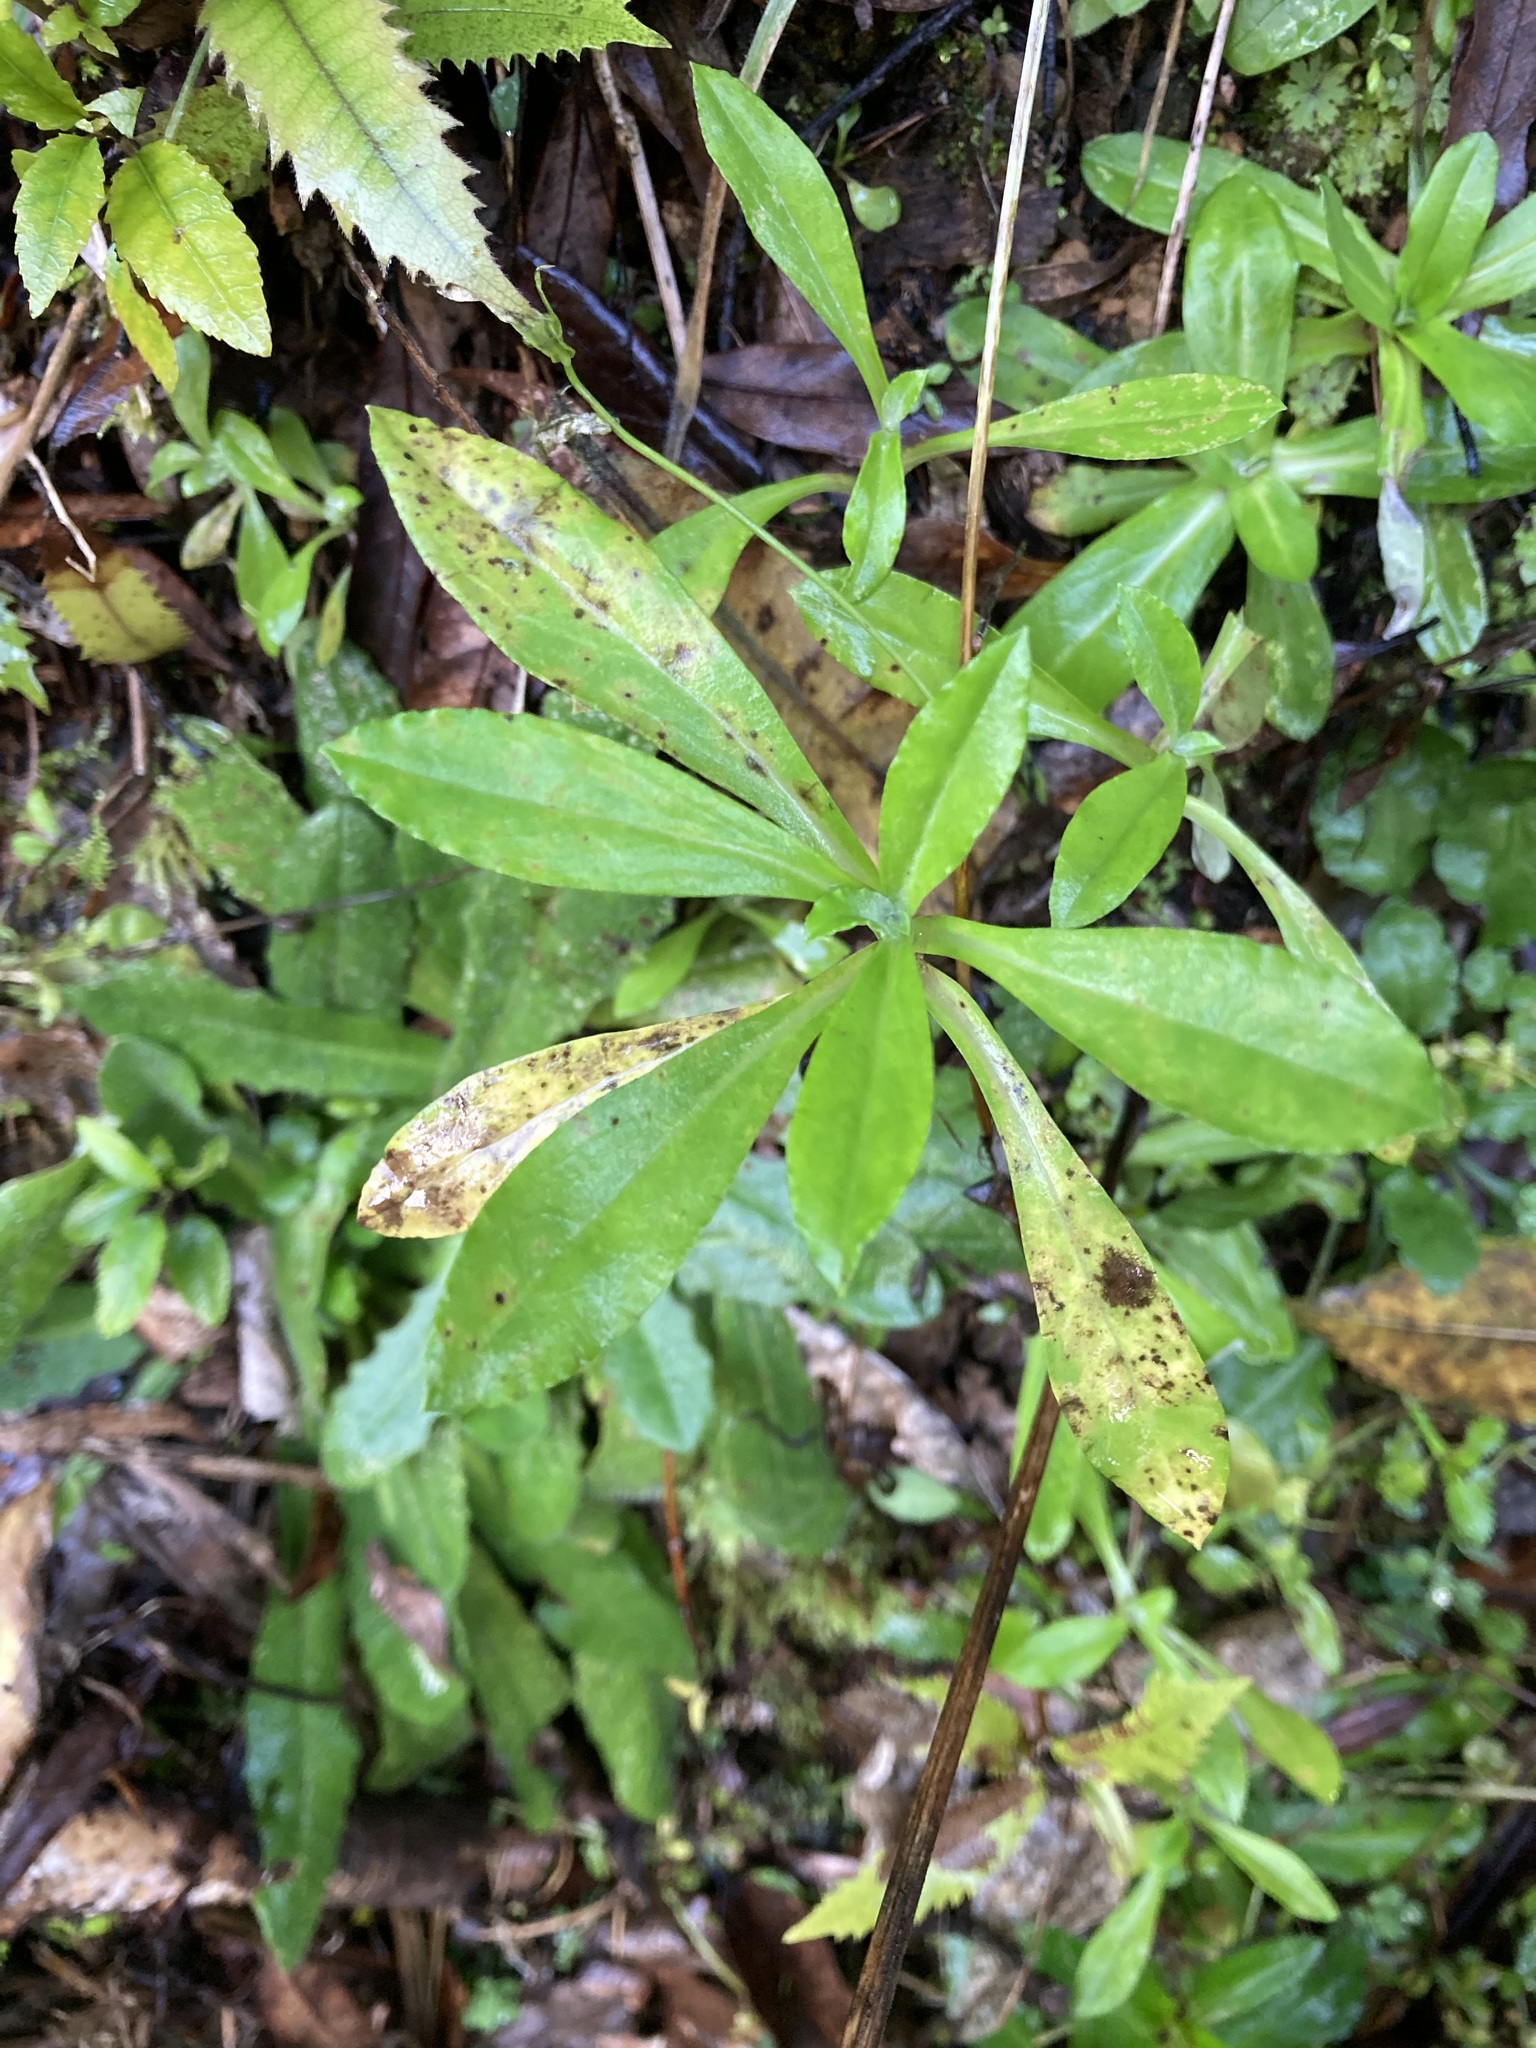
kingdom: Plantae
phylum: Tracheophyta
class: Magnoliopsida
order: Asterales
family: Asteraceae
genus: Gamochaeta
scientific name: Gamochaeta americana
